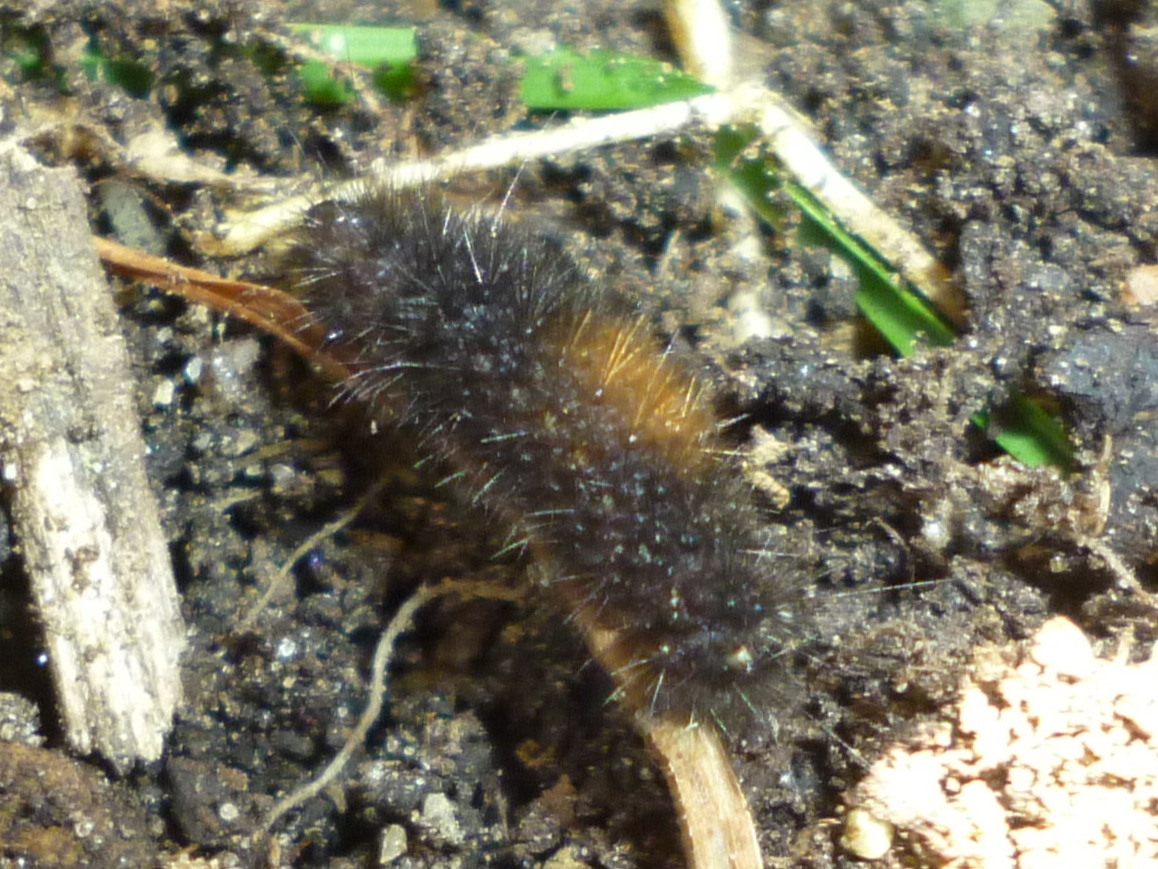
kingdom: Animalia
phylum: Arthropoda
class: Insecta
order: Lepidoptera
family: Erebidae
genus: Pyrrharctia
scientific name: Pyrrharctia isabella
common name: Isabella tiger moth
